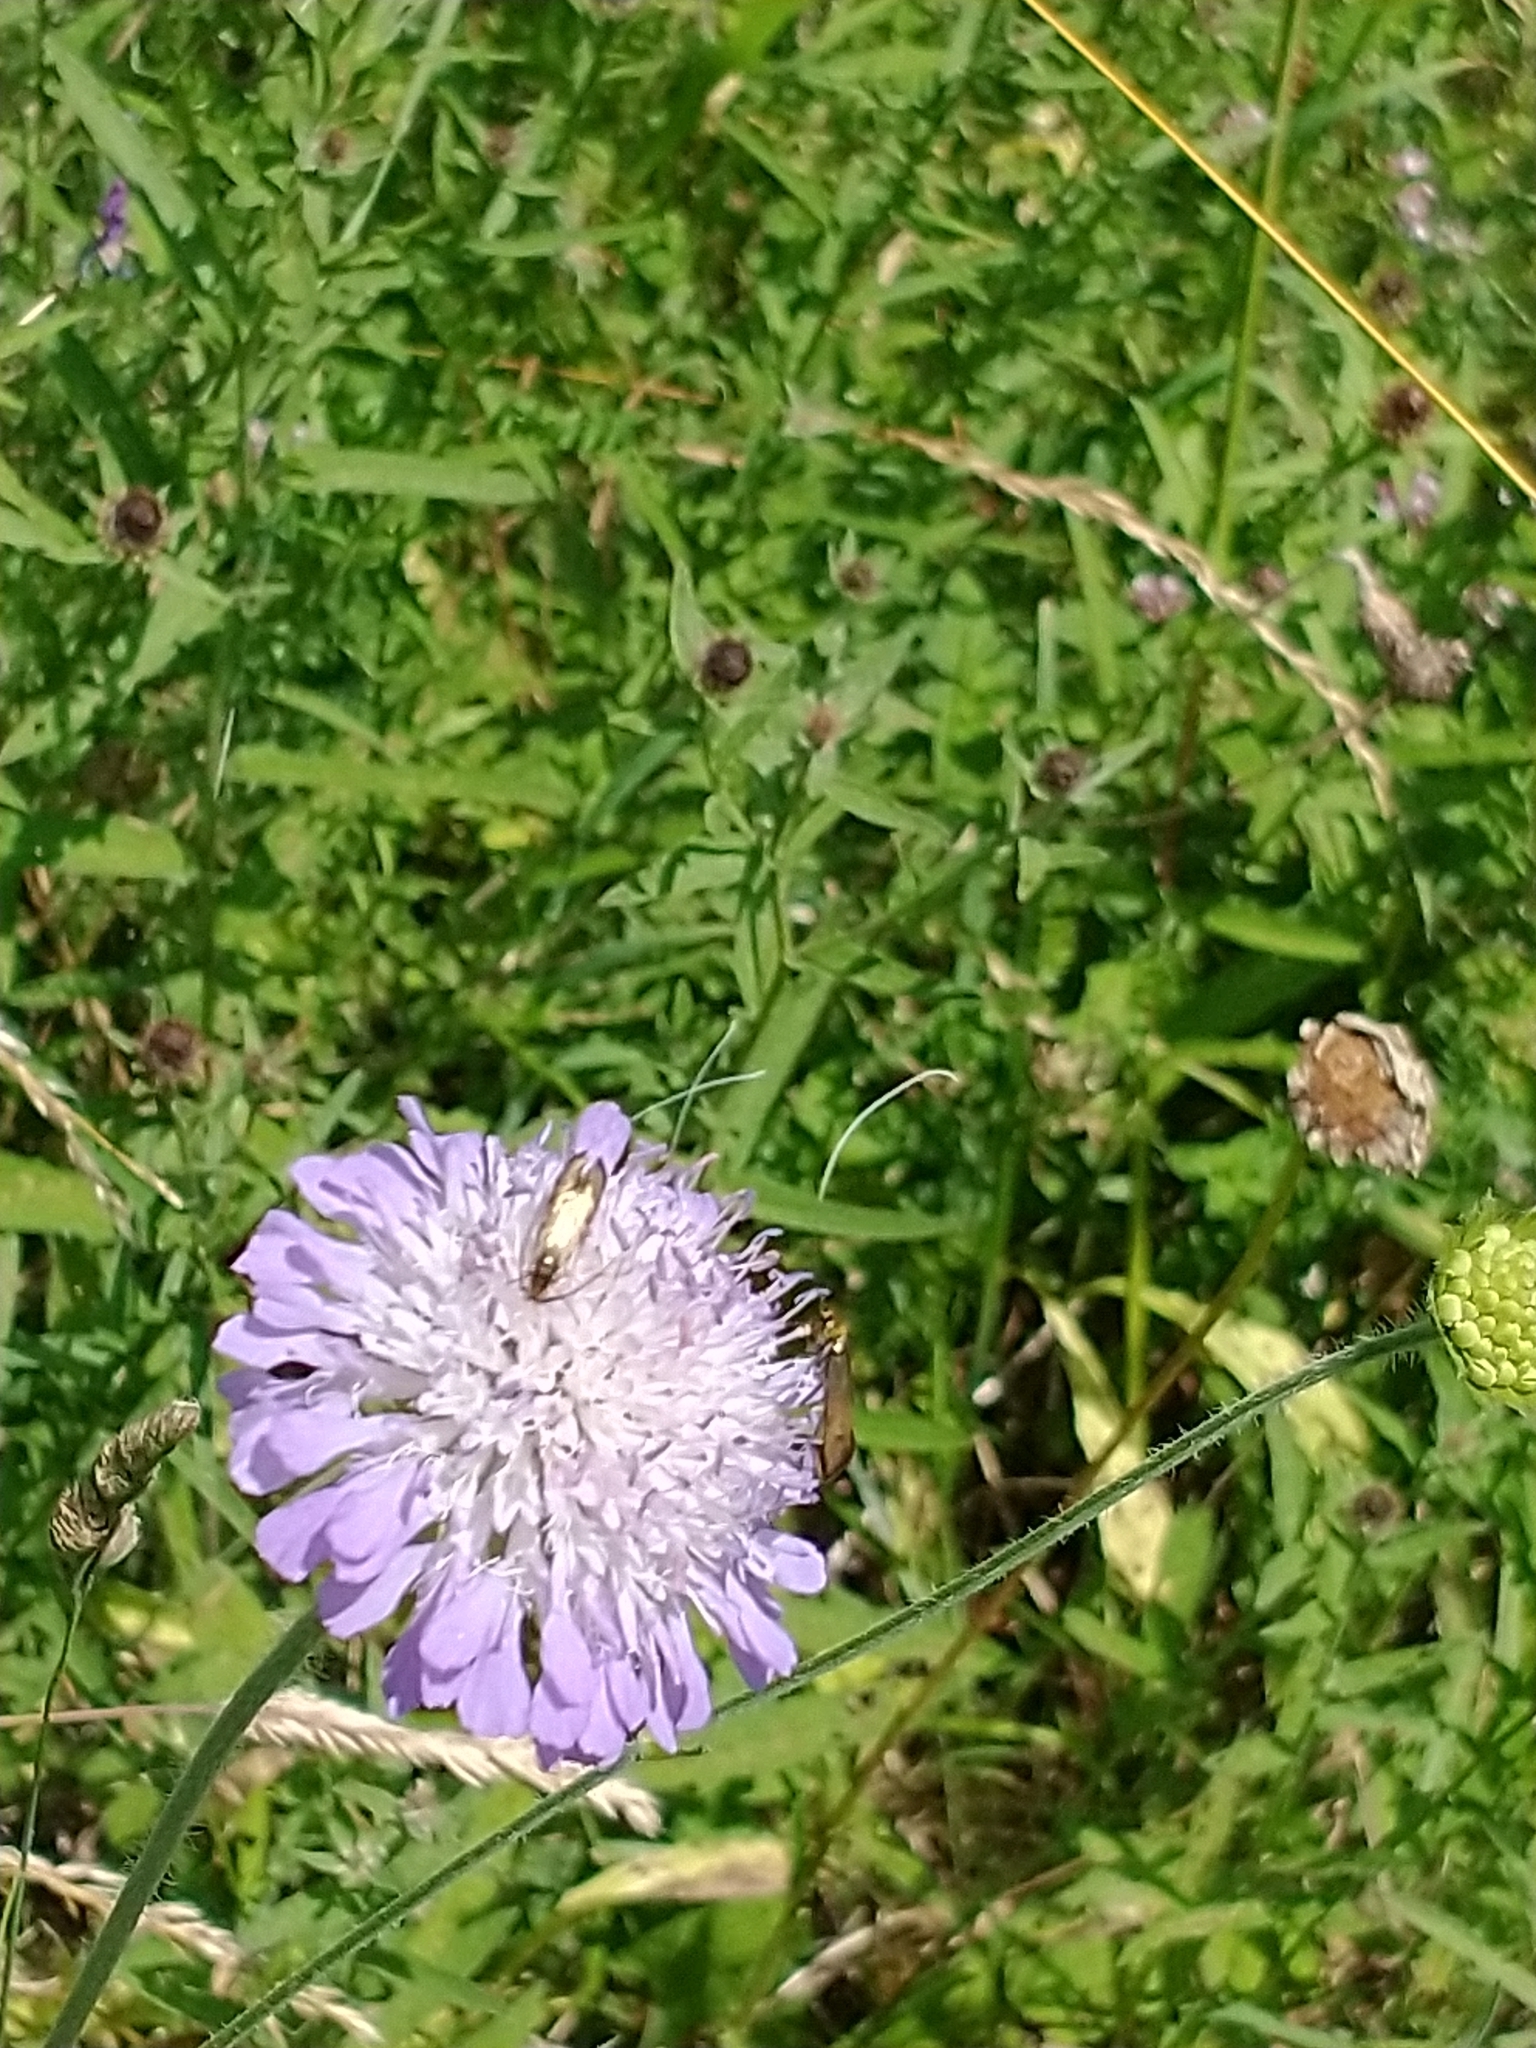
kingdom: Animalia
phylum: Arthropoda
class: Insecta
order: Lepidoptera
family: Adelidae
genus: Nemophora
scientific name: Nemophora metallica
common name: Brassy long-horn
